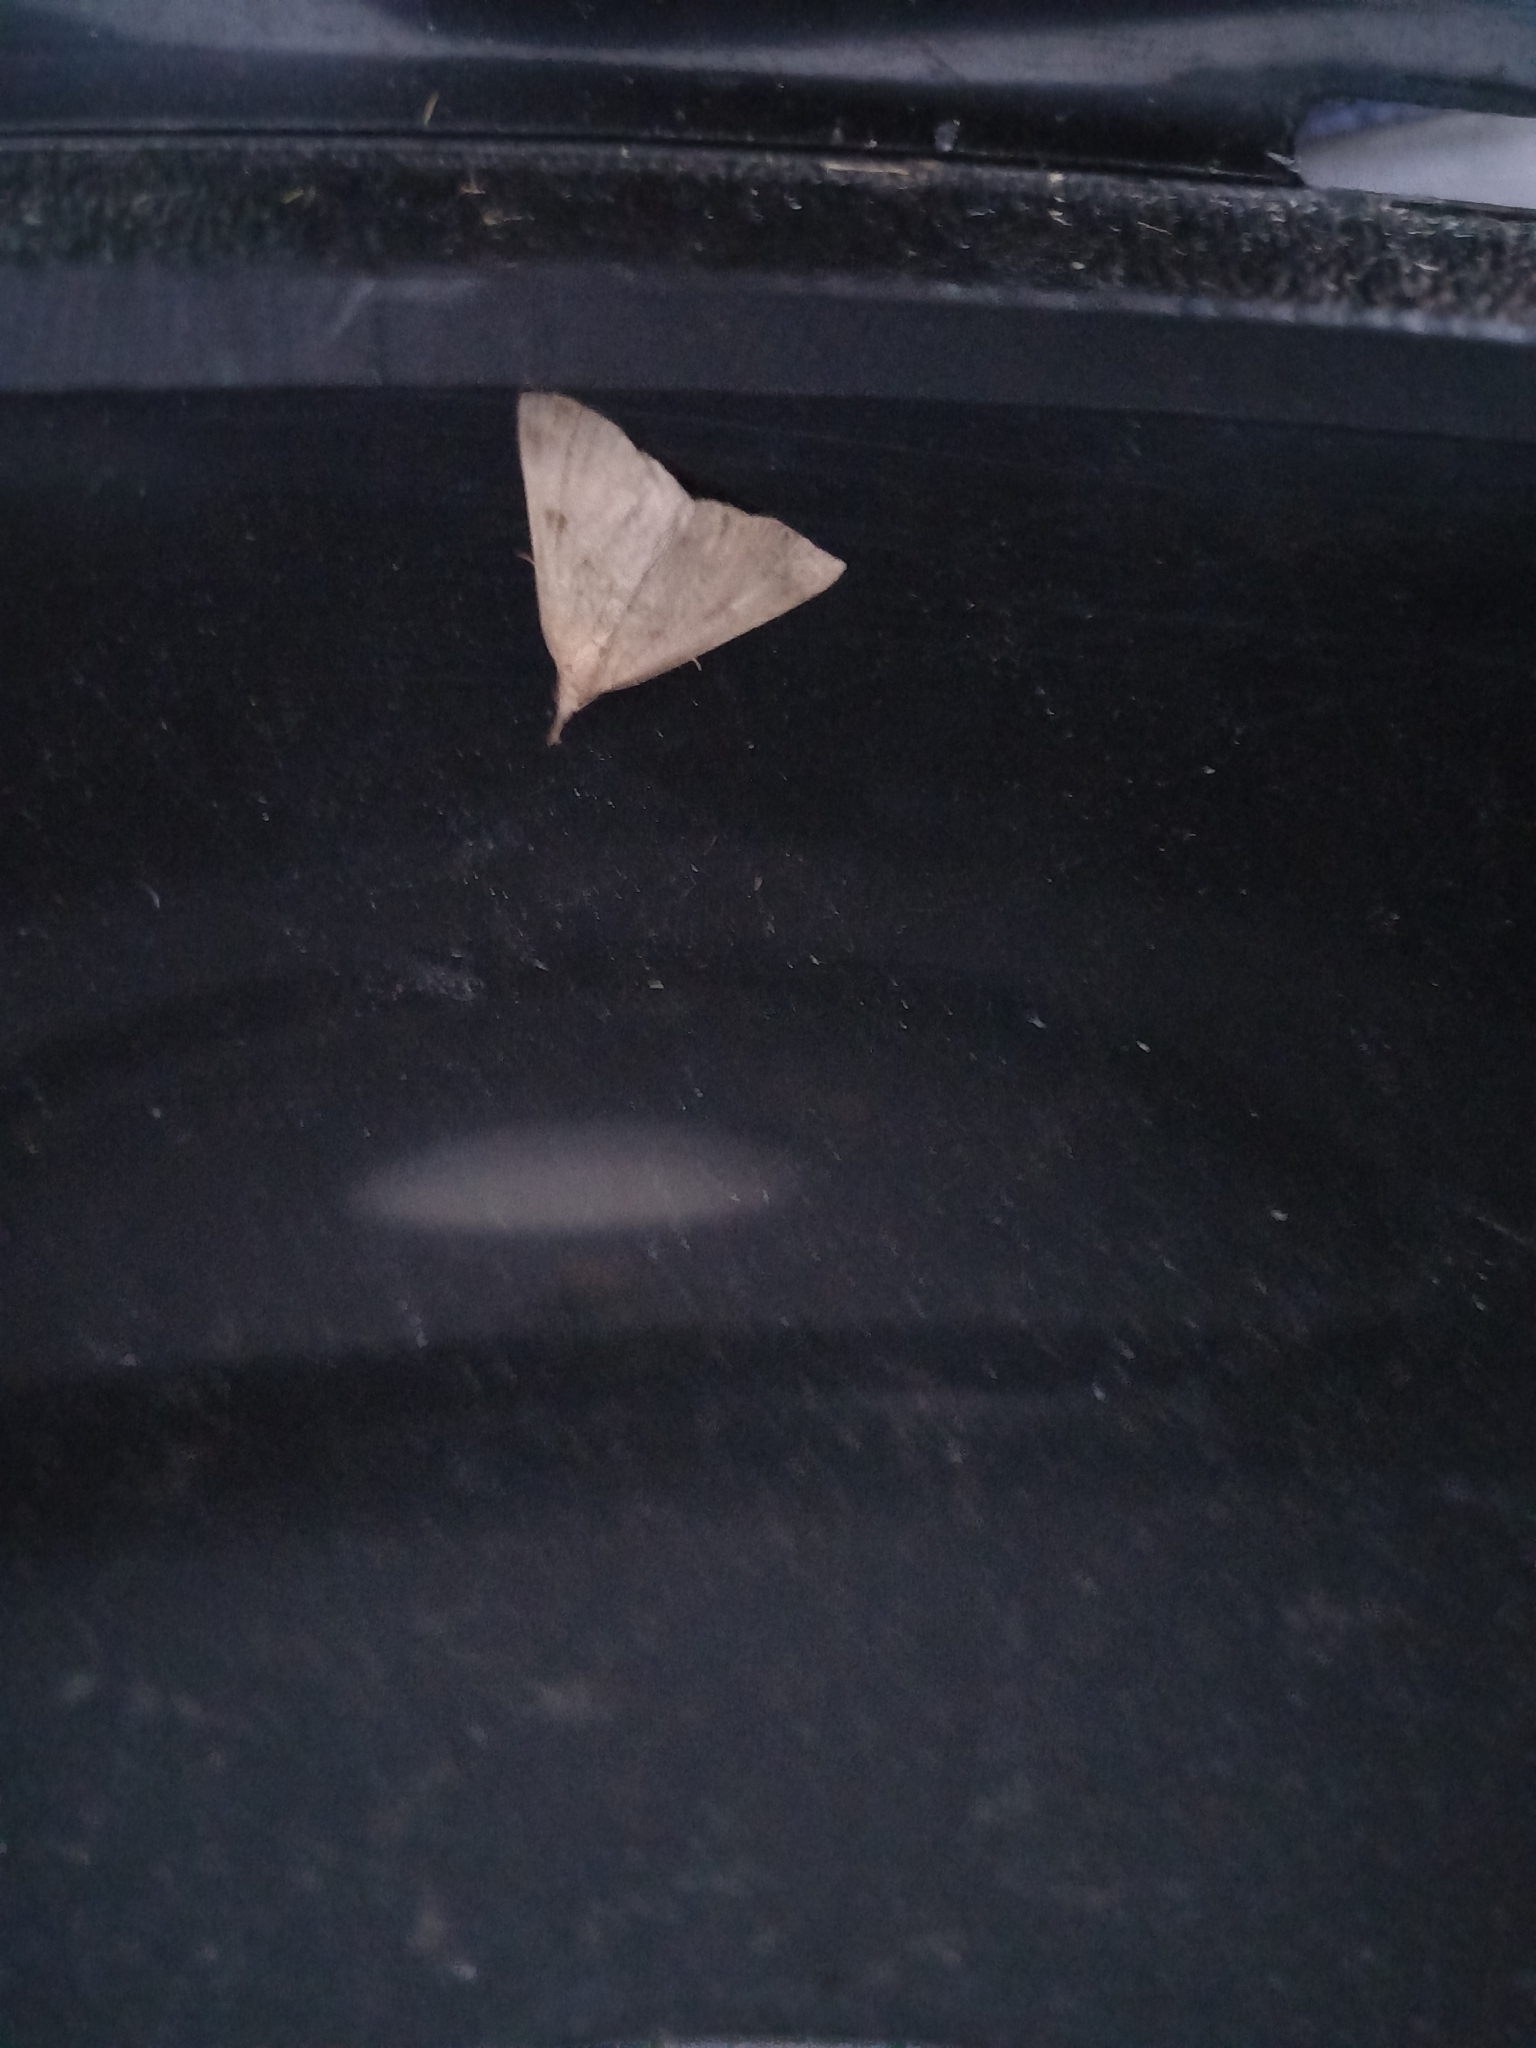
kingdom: Animalia
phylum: Arthropoda
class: Insecta
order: Lepidoptera
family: Erebidae
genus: Hypena
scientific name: Hypena proboscidalis
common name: Snout
